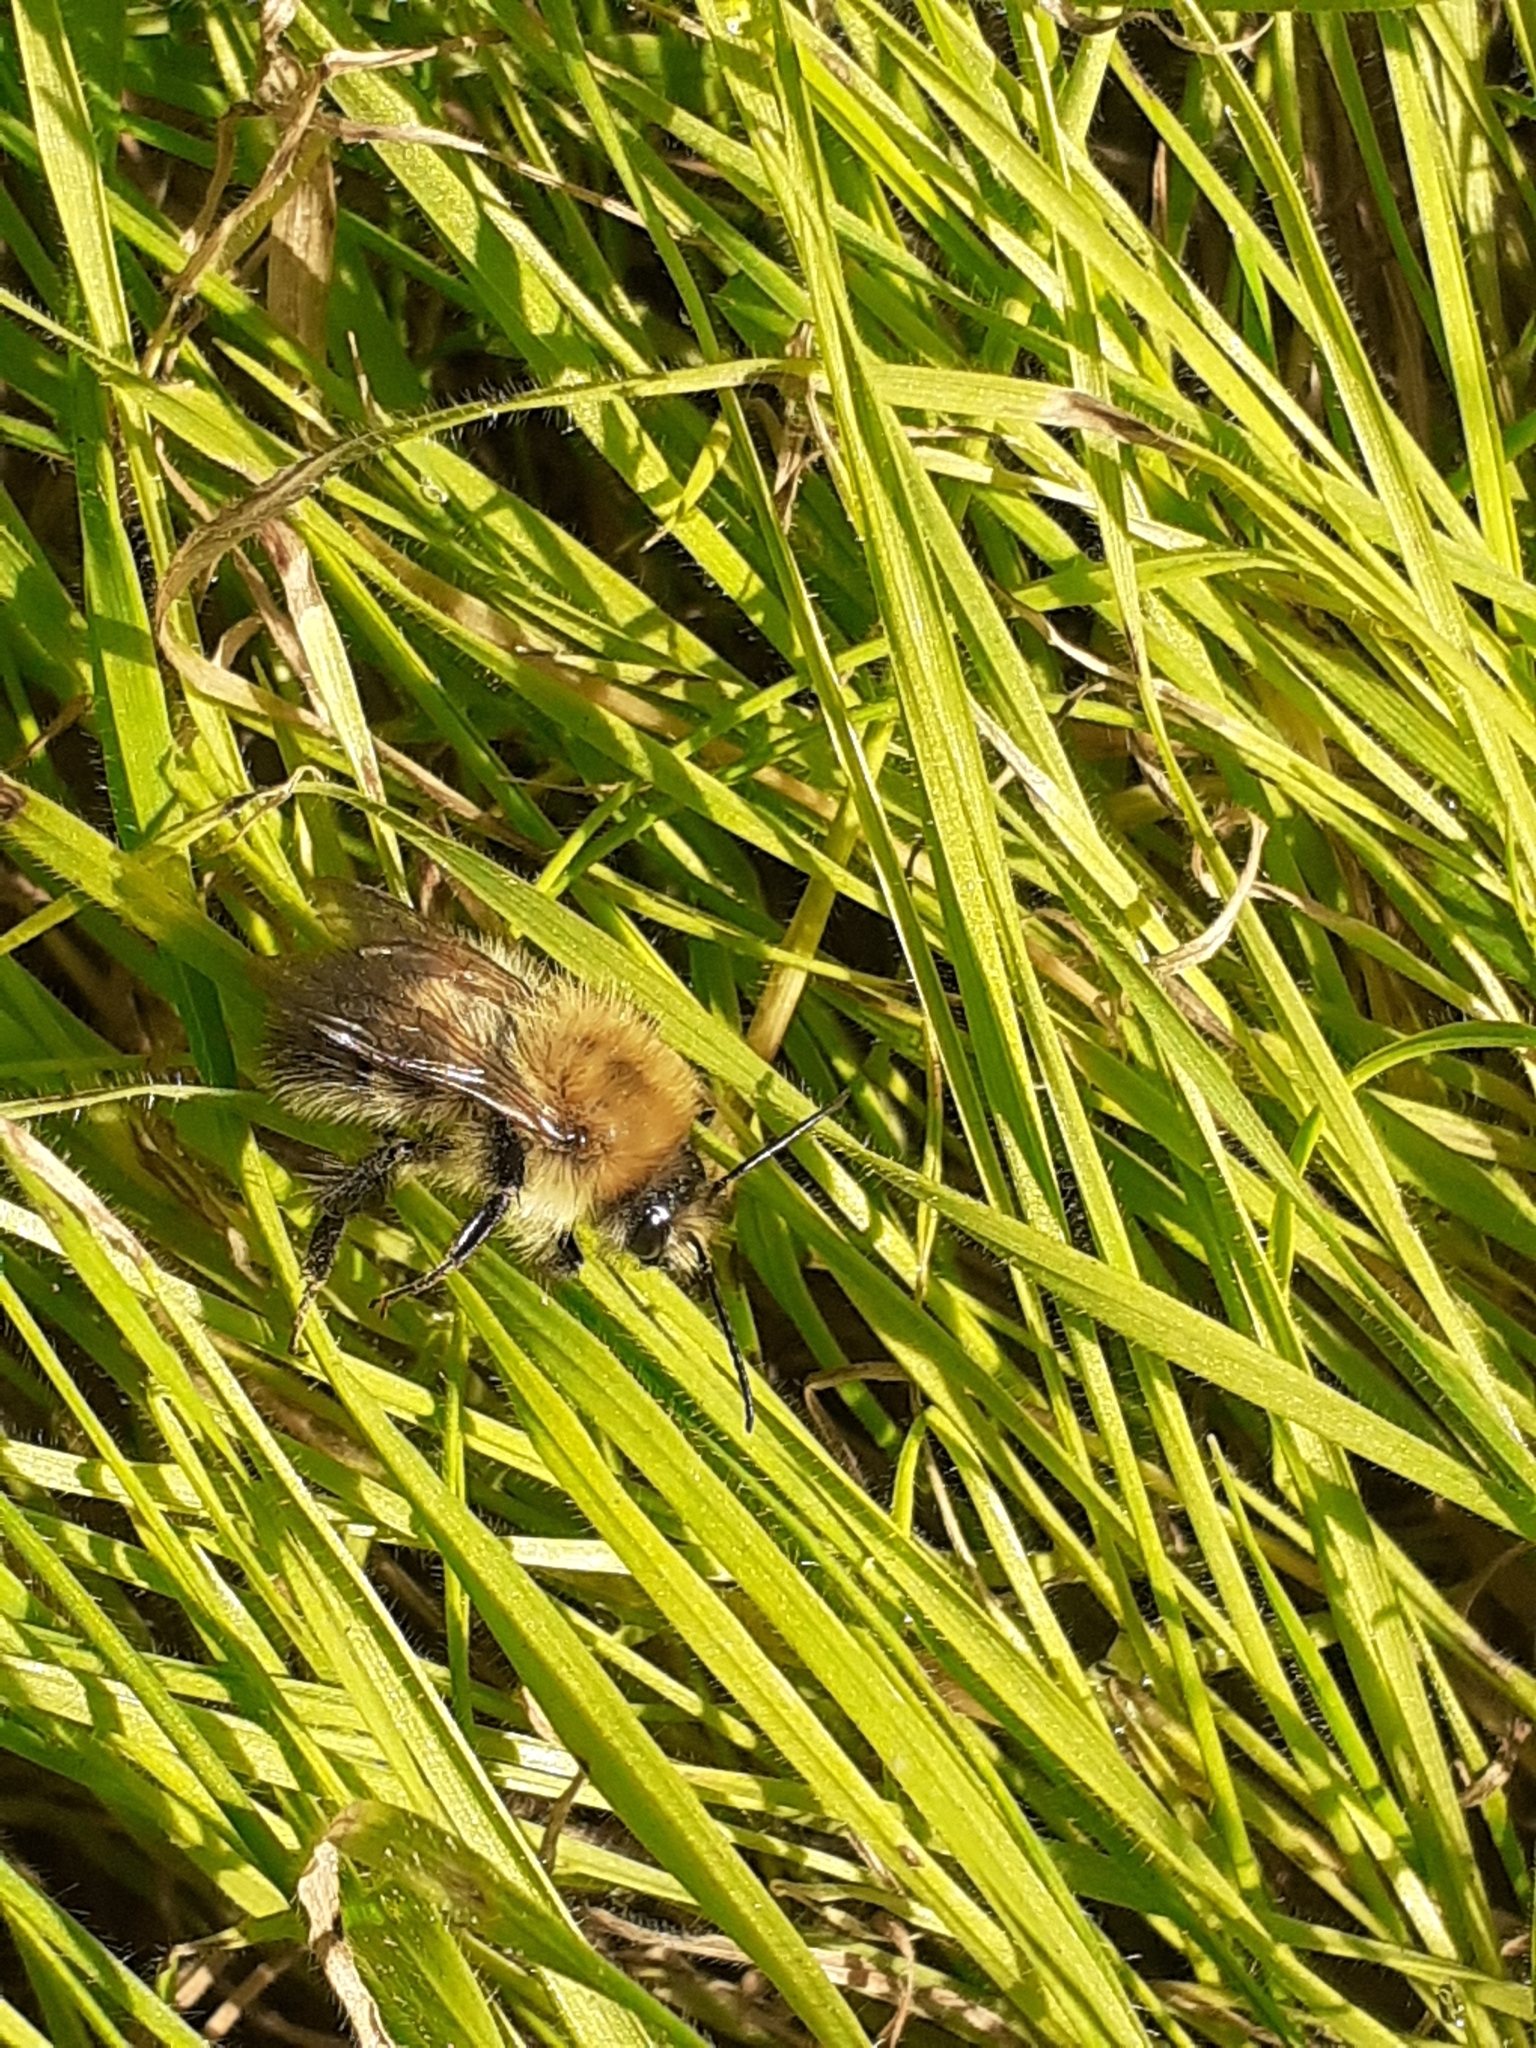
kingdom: Animalia
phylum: Arthropoda
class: Insecta
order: Hymenoptera
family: Apidae
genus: Bombus
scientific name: Bombus pascuorum
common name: Common carder bee
